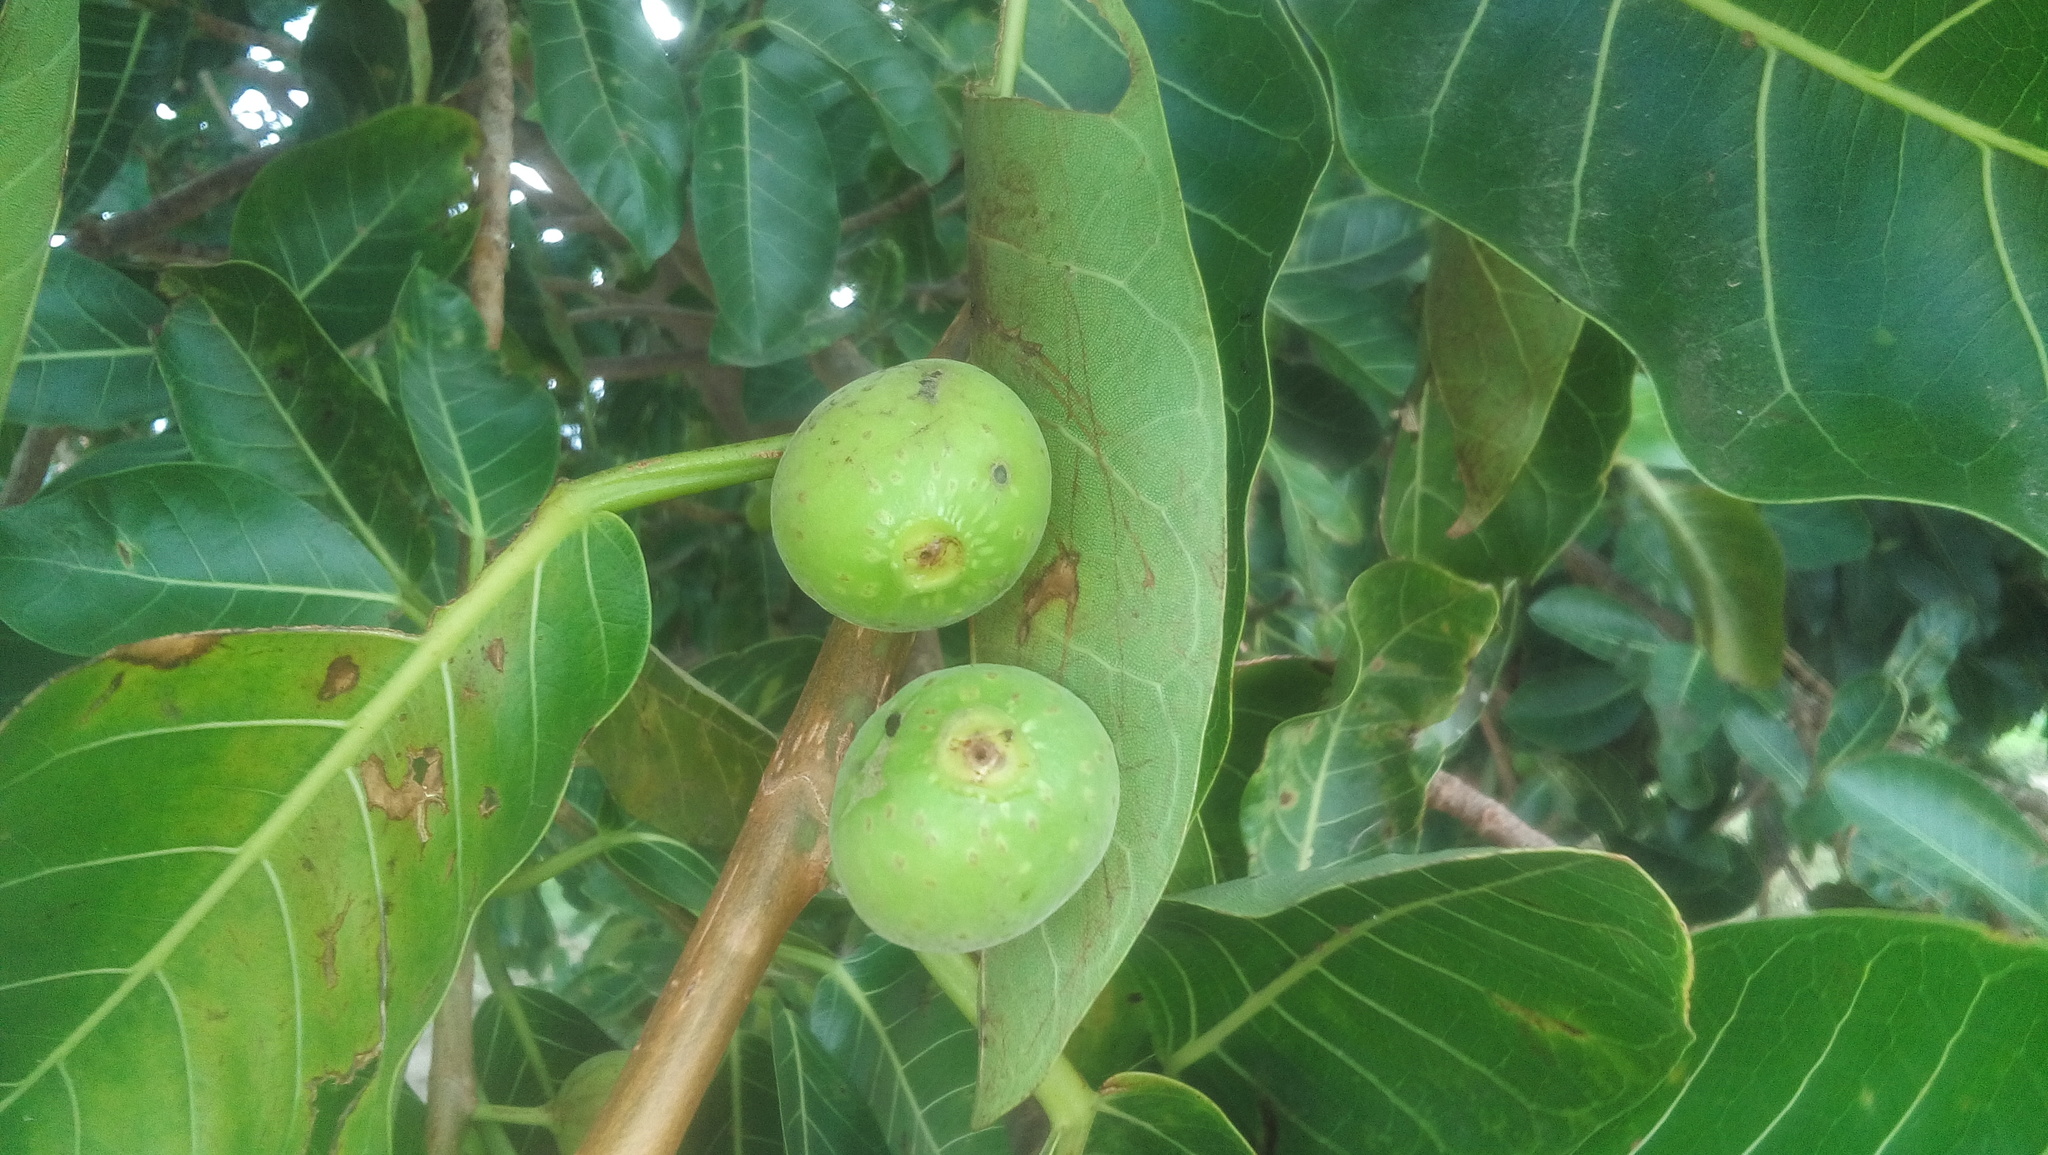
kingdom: Plantae
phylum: Tracheophyta
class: Magnoliopsida
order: Rosales
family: Moraceae
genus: Ficus
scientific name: Ficus crocata
